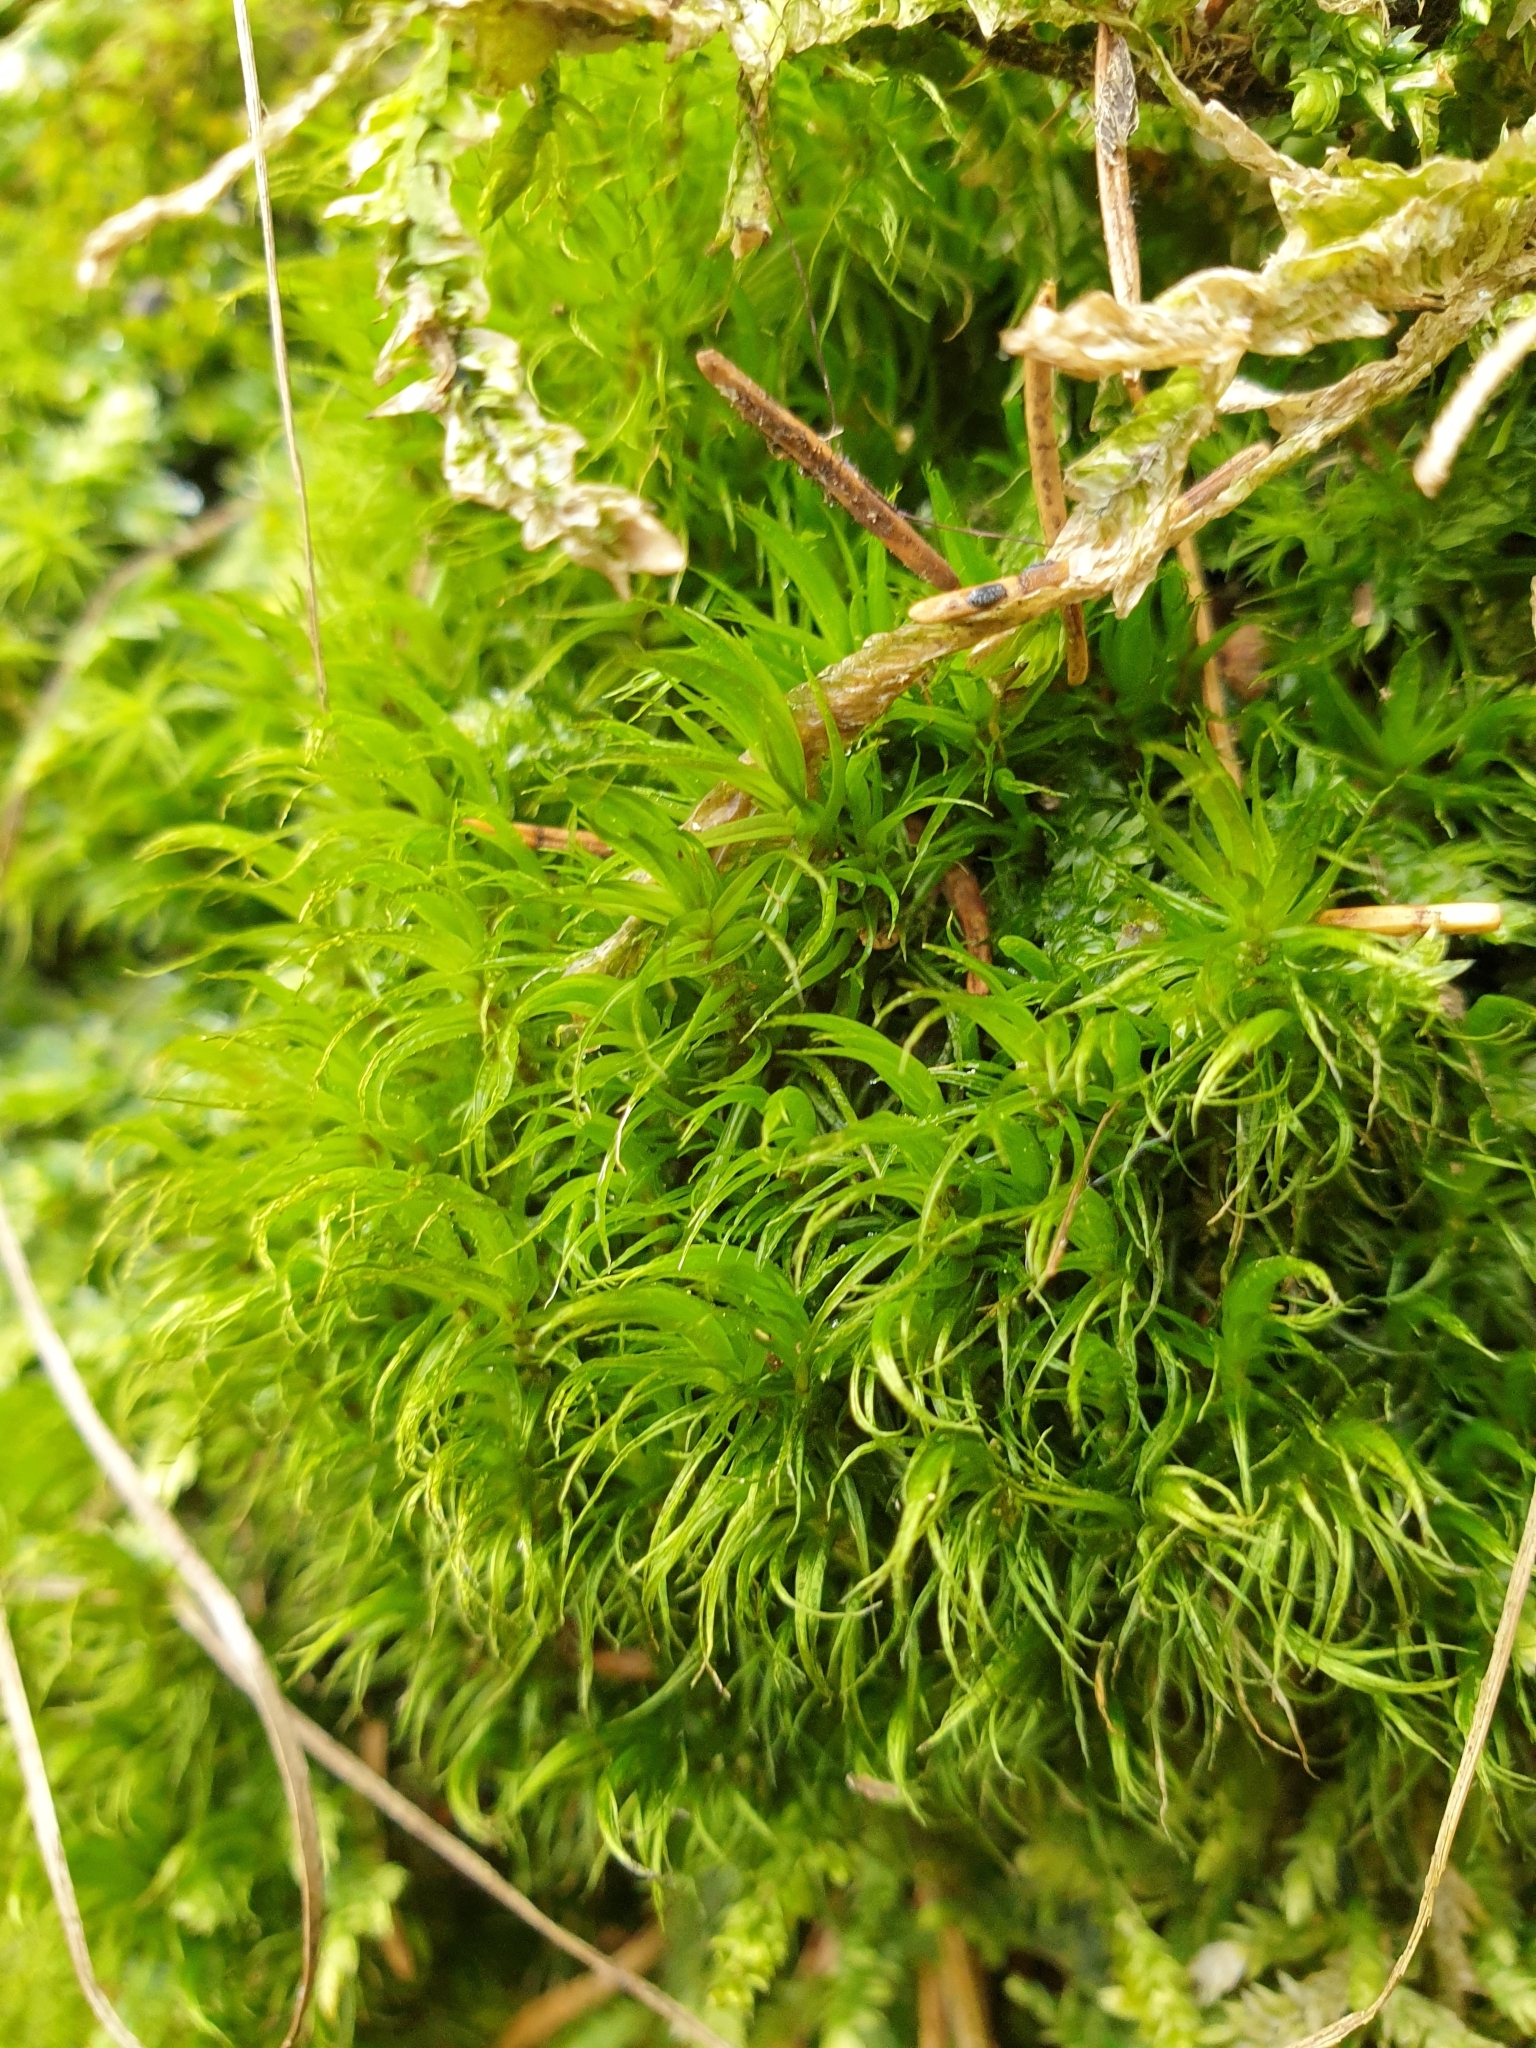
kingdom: Plantae
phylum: Bryophyta
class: Bryopsida
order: Dicranales
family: Dicranaceae
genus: Dicranum
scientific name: Dicranum scoparium
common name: Broom fork-moss
